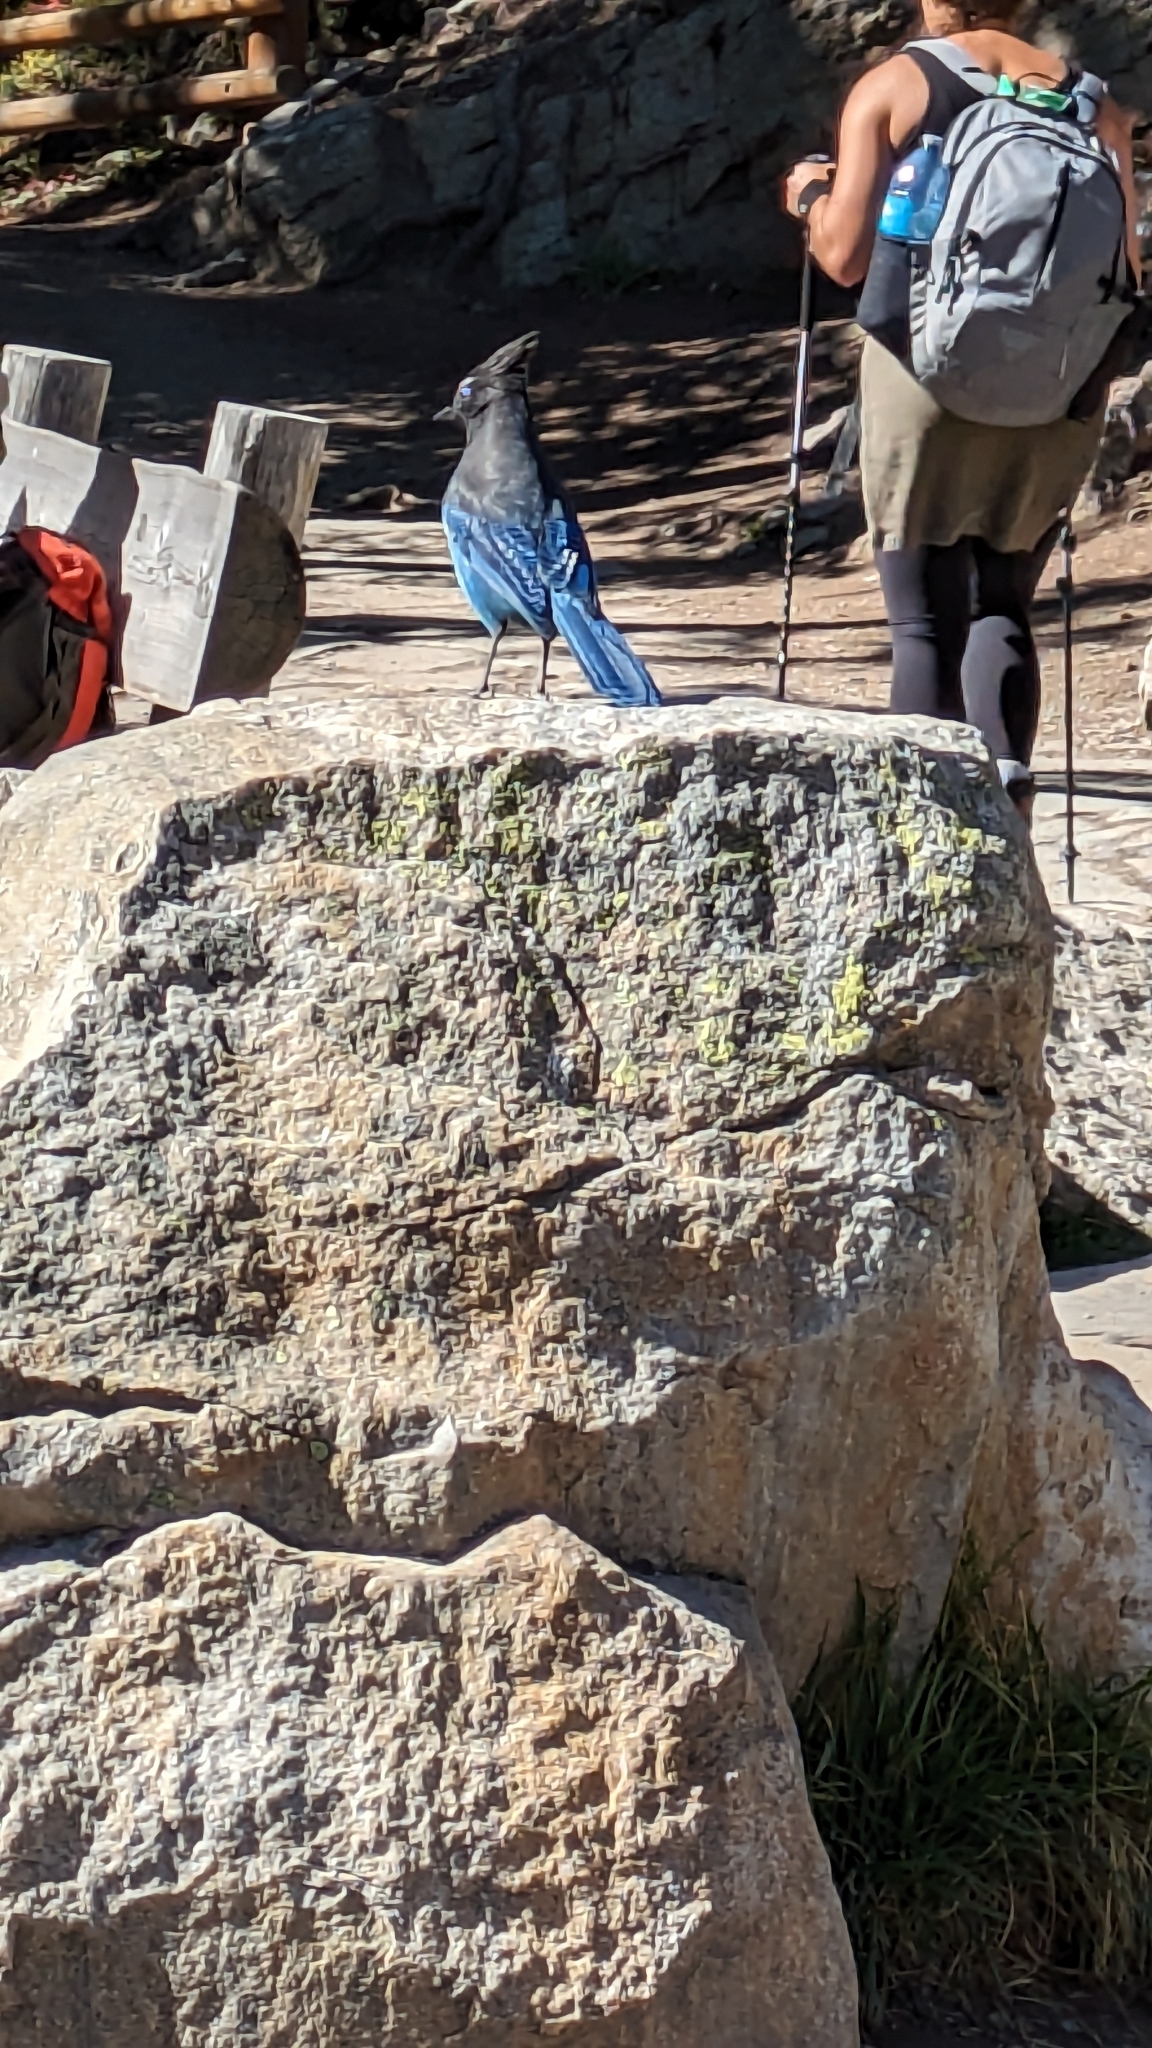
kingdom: Animalia
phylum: Chordata
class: Aves
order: Passeriformes
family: Corvidae
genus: Cyanocitta
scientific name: Cyanocitta stelleri
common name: Steller's jay
